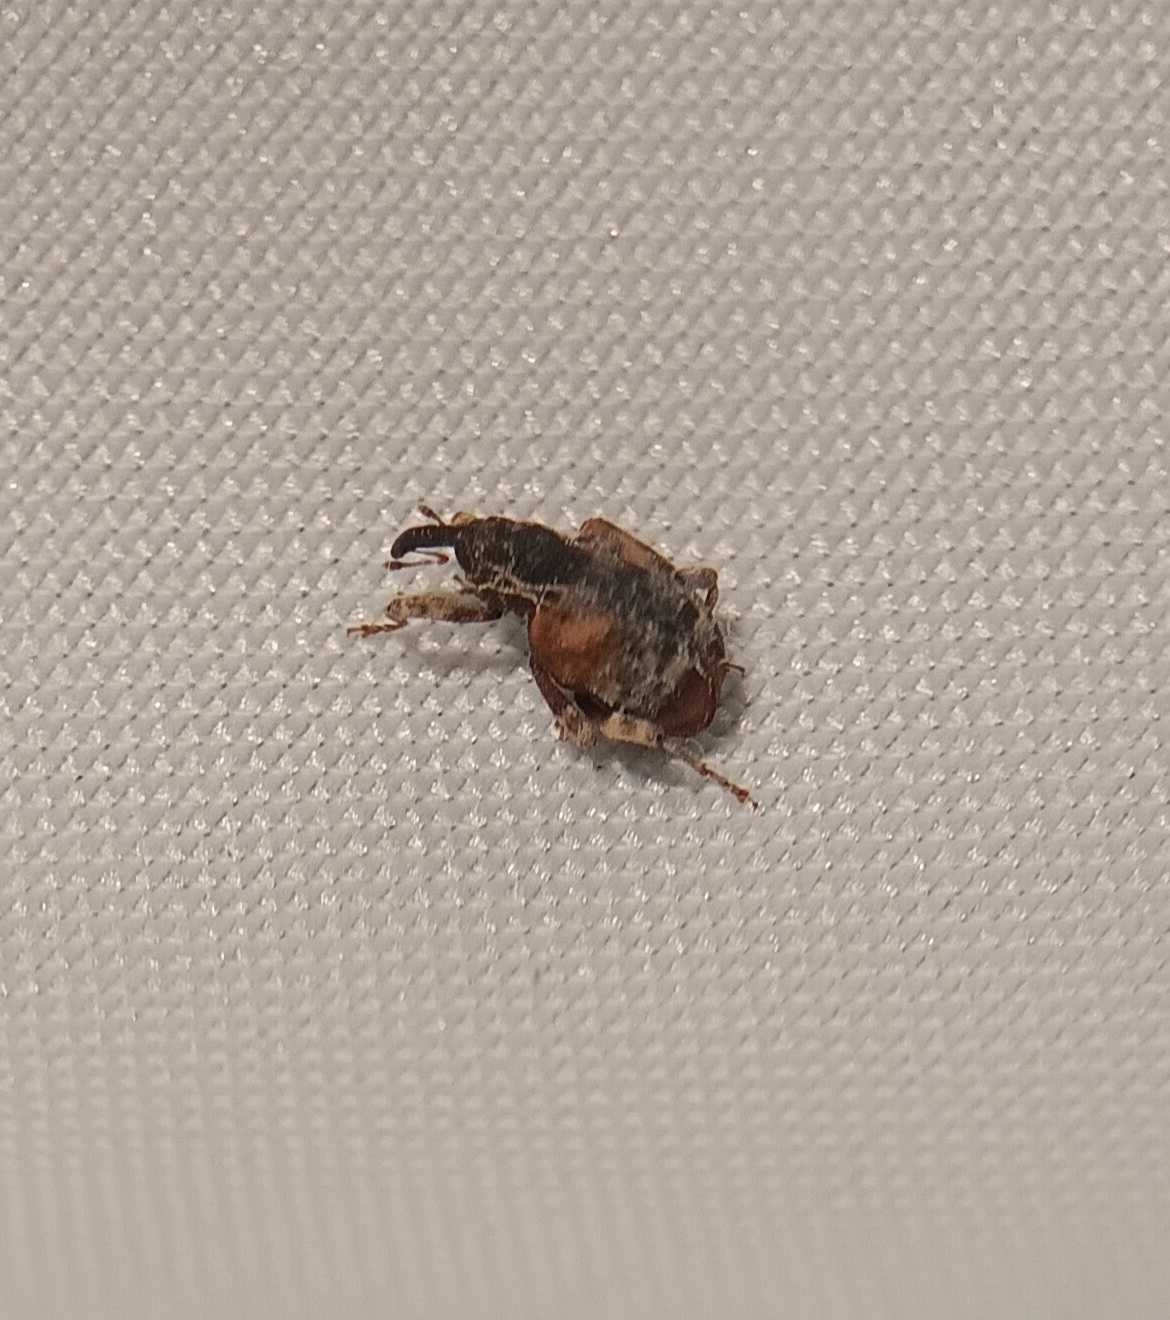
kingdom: Animalia
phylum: Arthropoda
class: Insecta
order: Coleoptera
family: Curculionidae
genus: Conotrachelus
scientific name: Conotrachelus anaglypticus
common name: Cambium curculio
